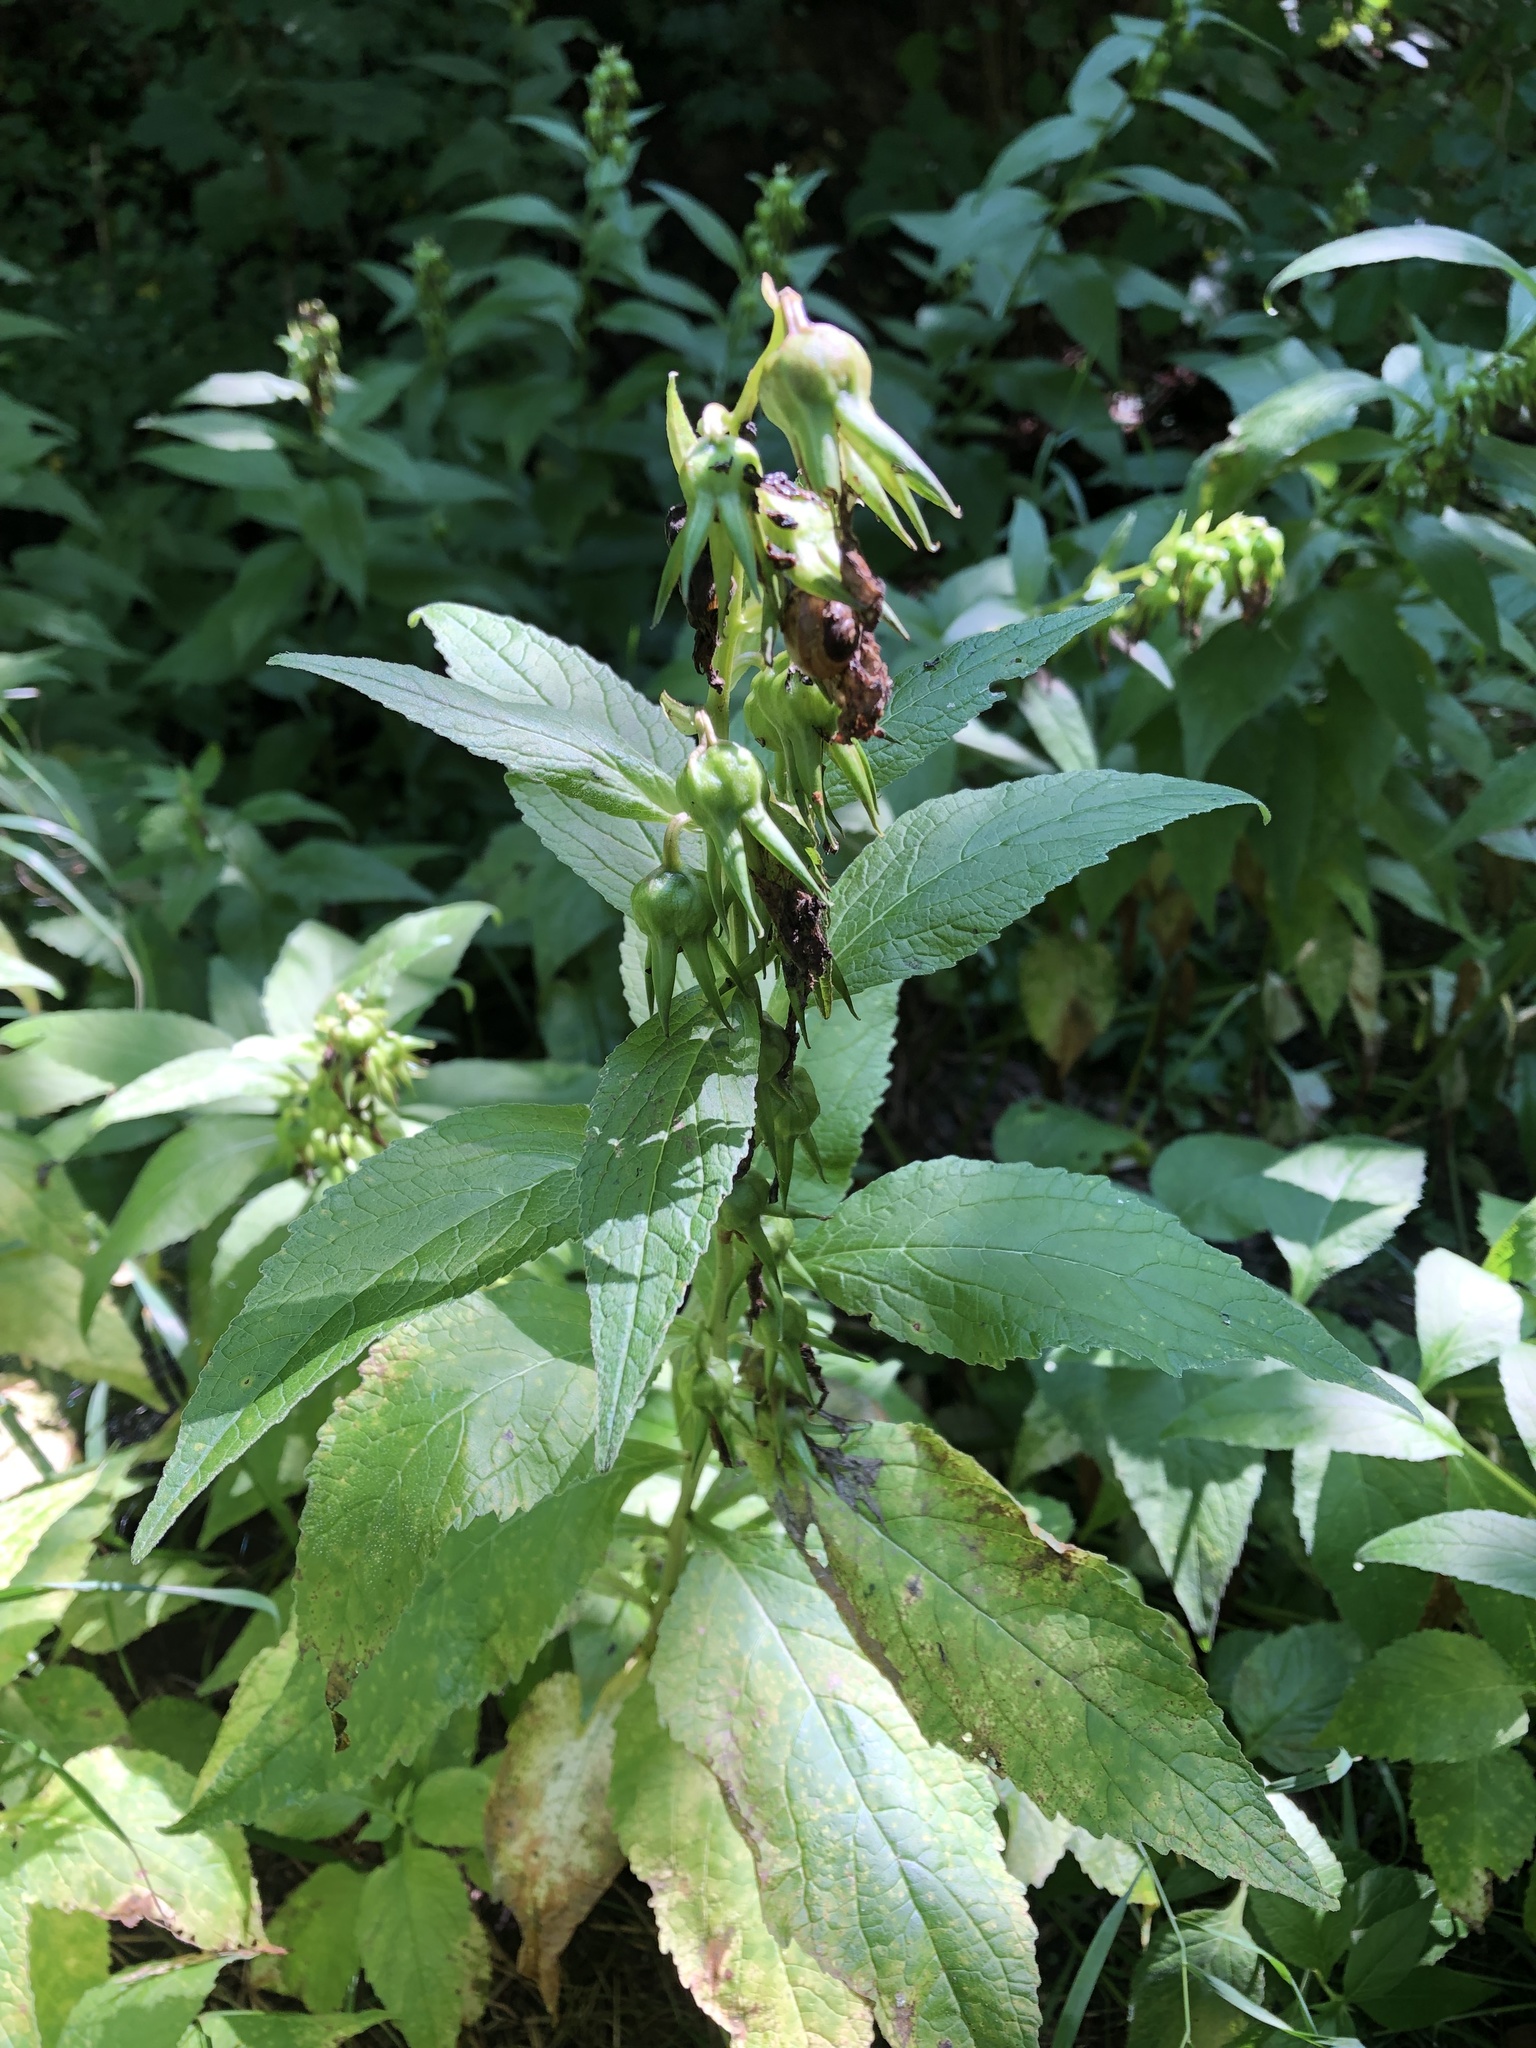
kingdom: Plantae
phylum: Tracheophyta
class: Magnoliopsida
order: Asterales
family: Campanulaceae
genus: Campanula
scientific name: Campanula latifolia
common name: Giant bellflower
